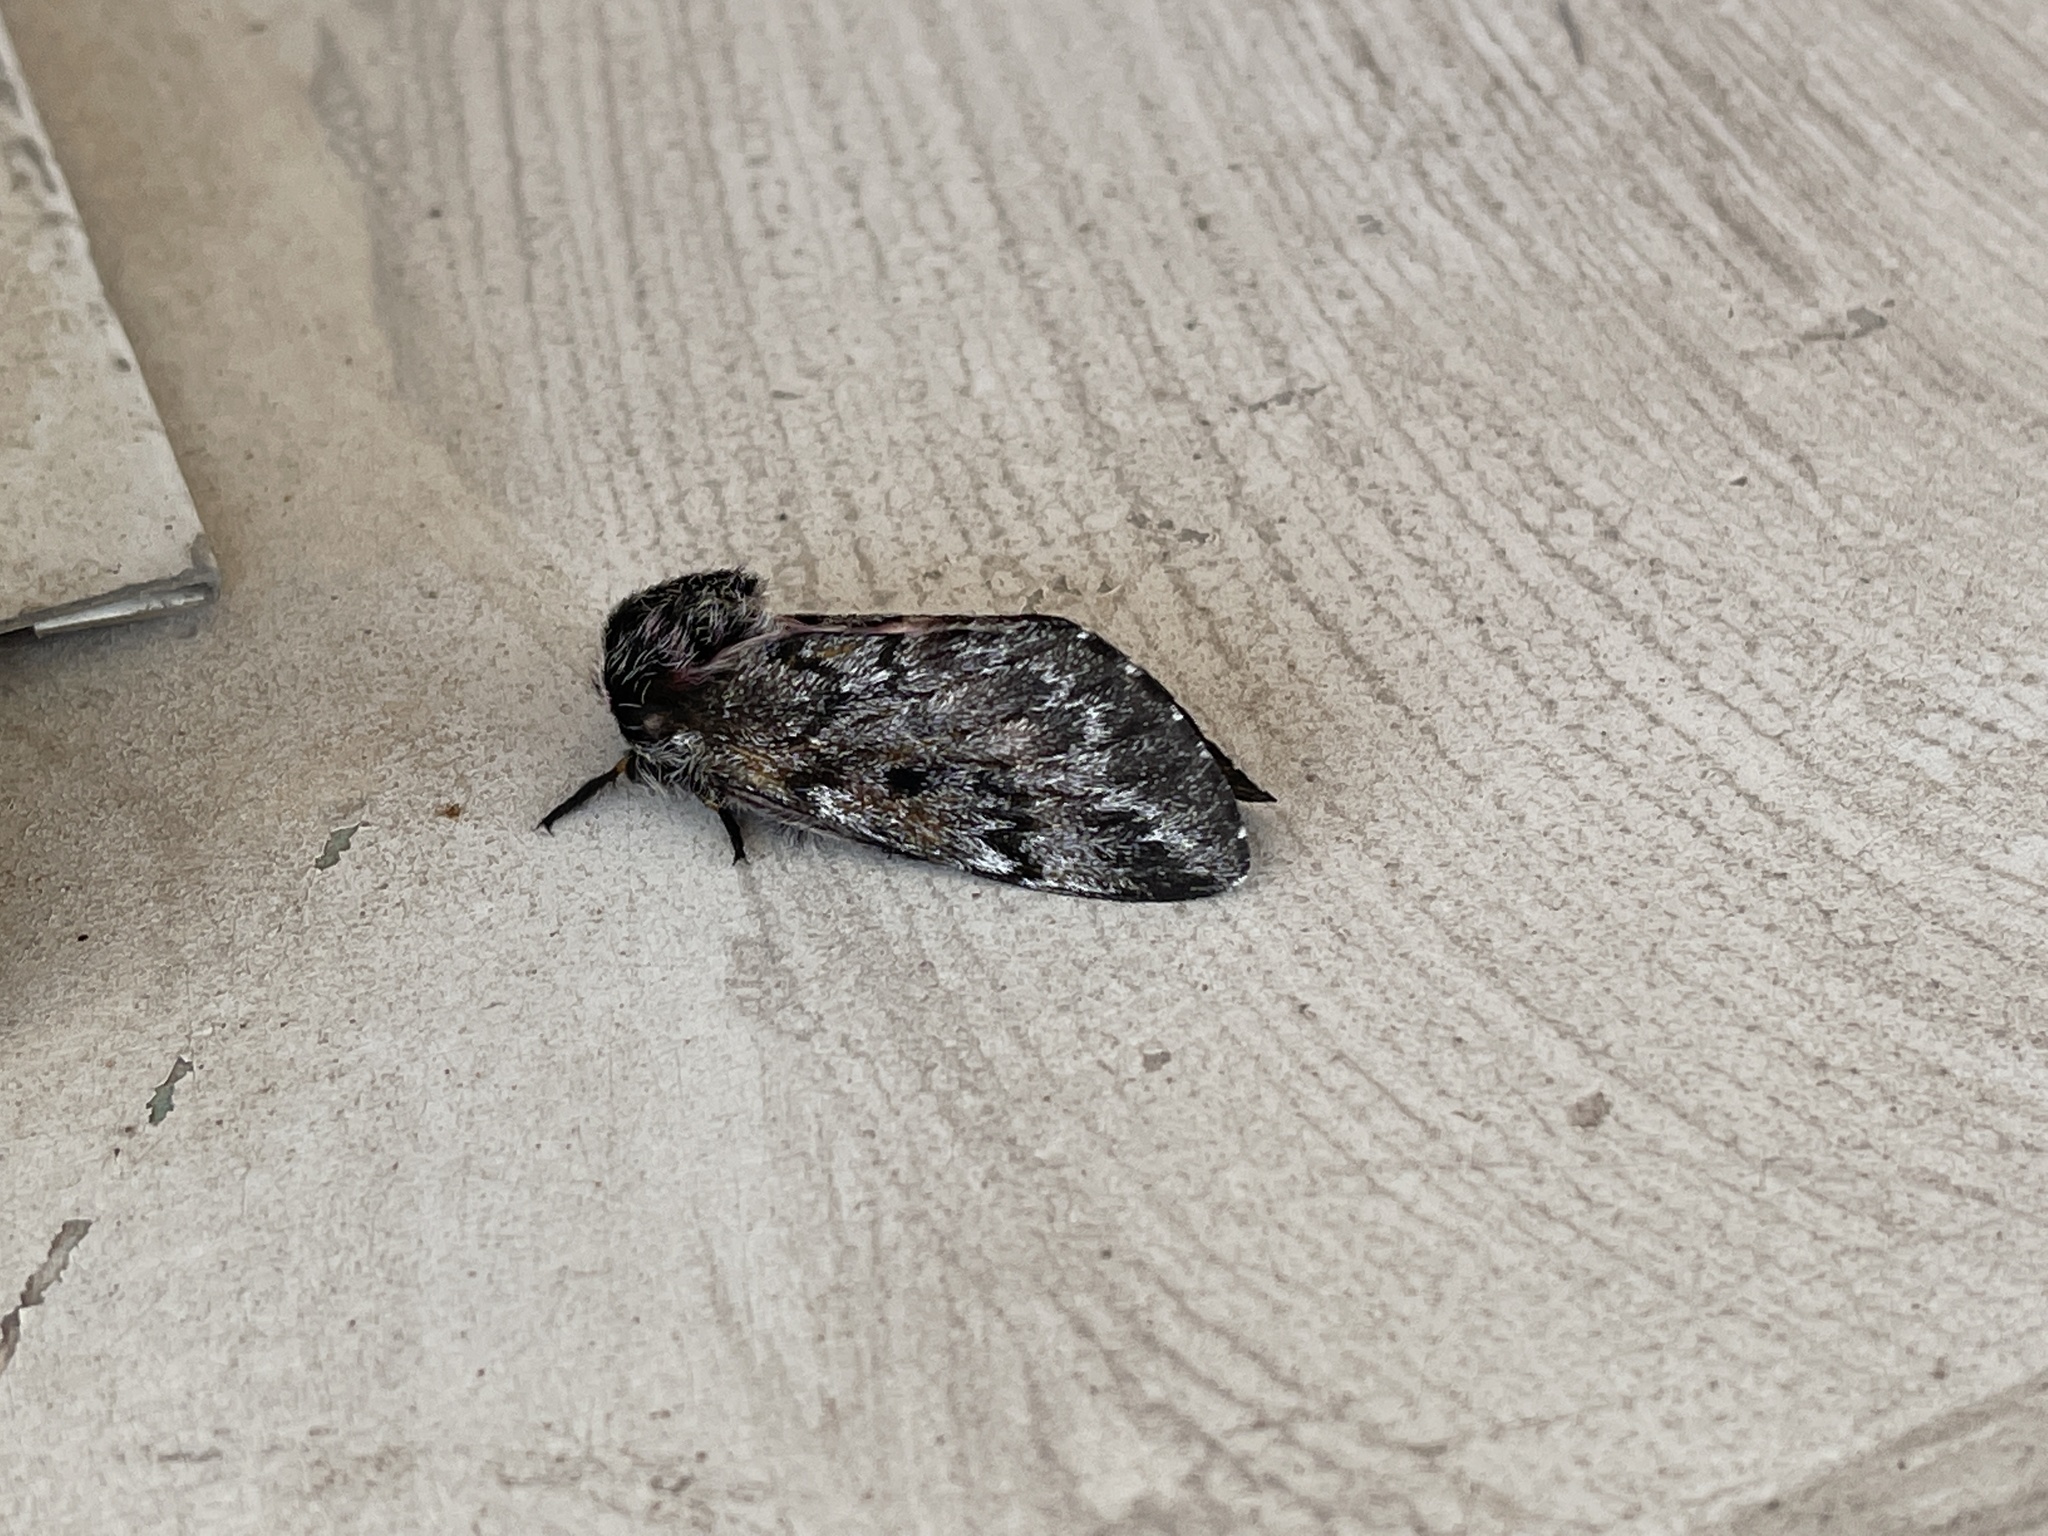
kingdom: Animalia
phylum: Arthropoda
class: Insecta
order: Lepidoptera
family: Saturniidae
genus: Coloradia
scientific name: Coloradia pandora
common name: Pandora pinemoth
